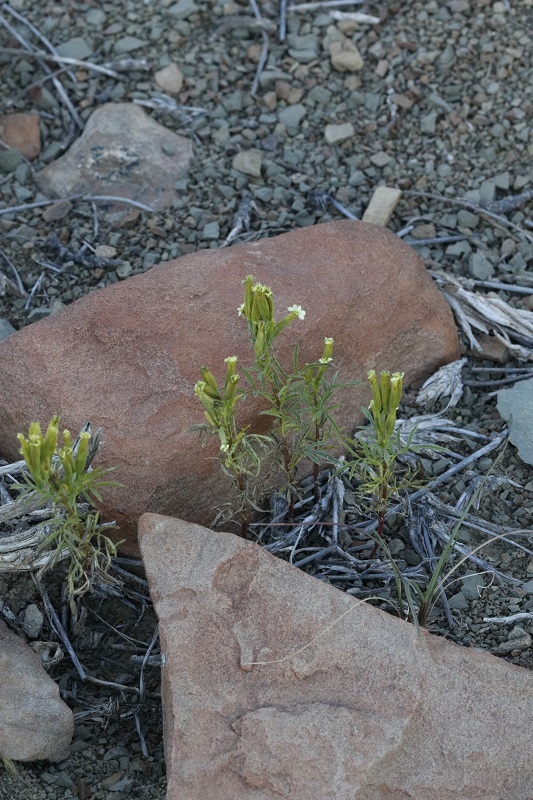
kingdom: Plantae
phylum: Tracheophyta
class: Magnoliopsida
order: Asterales
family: Asteraceae
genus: Tagetes
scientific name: Tagetes minuta
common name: Muster john henry
